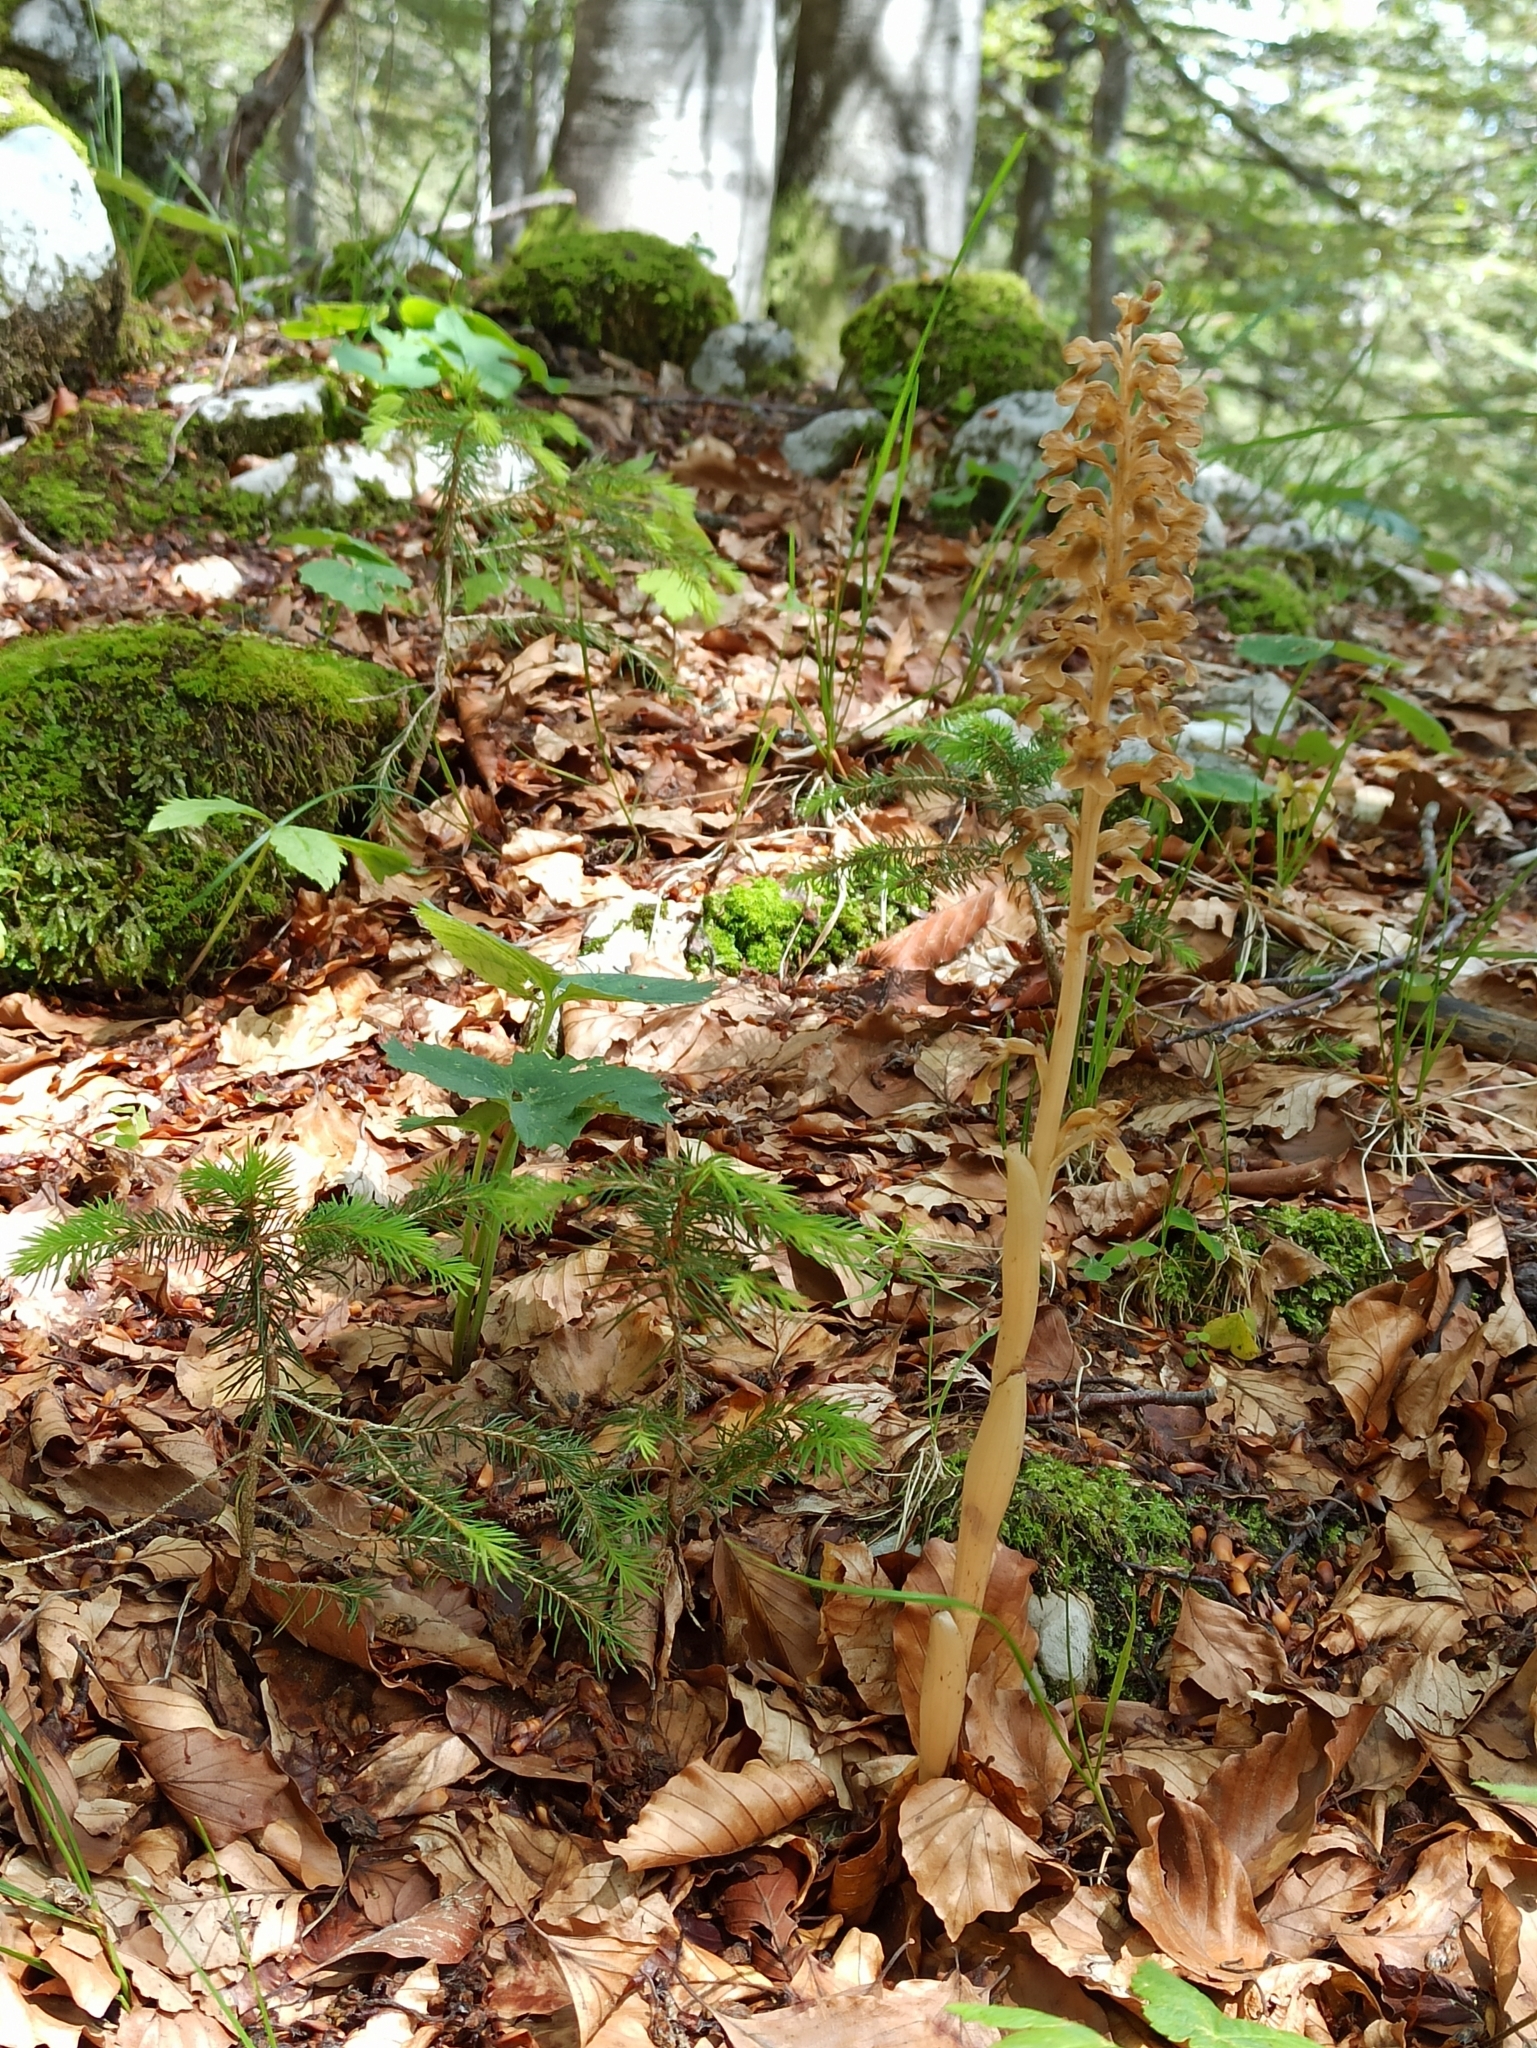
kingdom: Plantae
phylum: Tracheophyta
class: Liliopsida
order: Asparagales
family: Orchidaceae
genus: Neottia
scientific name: Neottia nidus-avis
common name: Bird's-nest orchid
